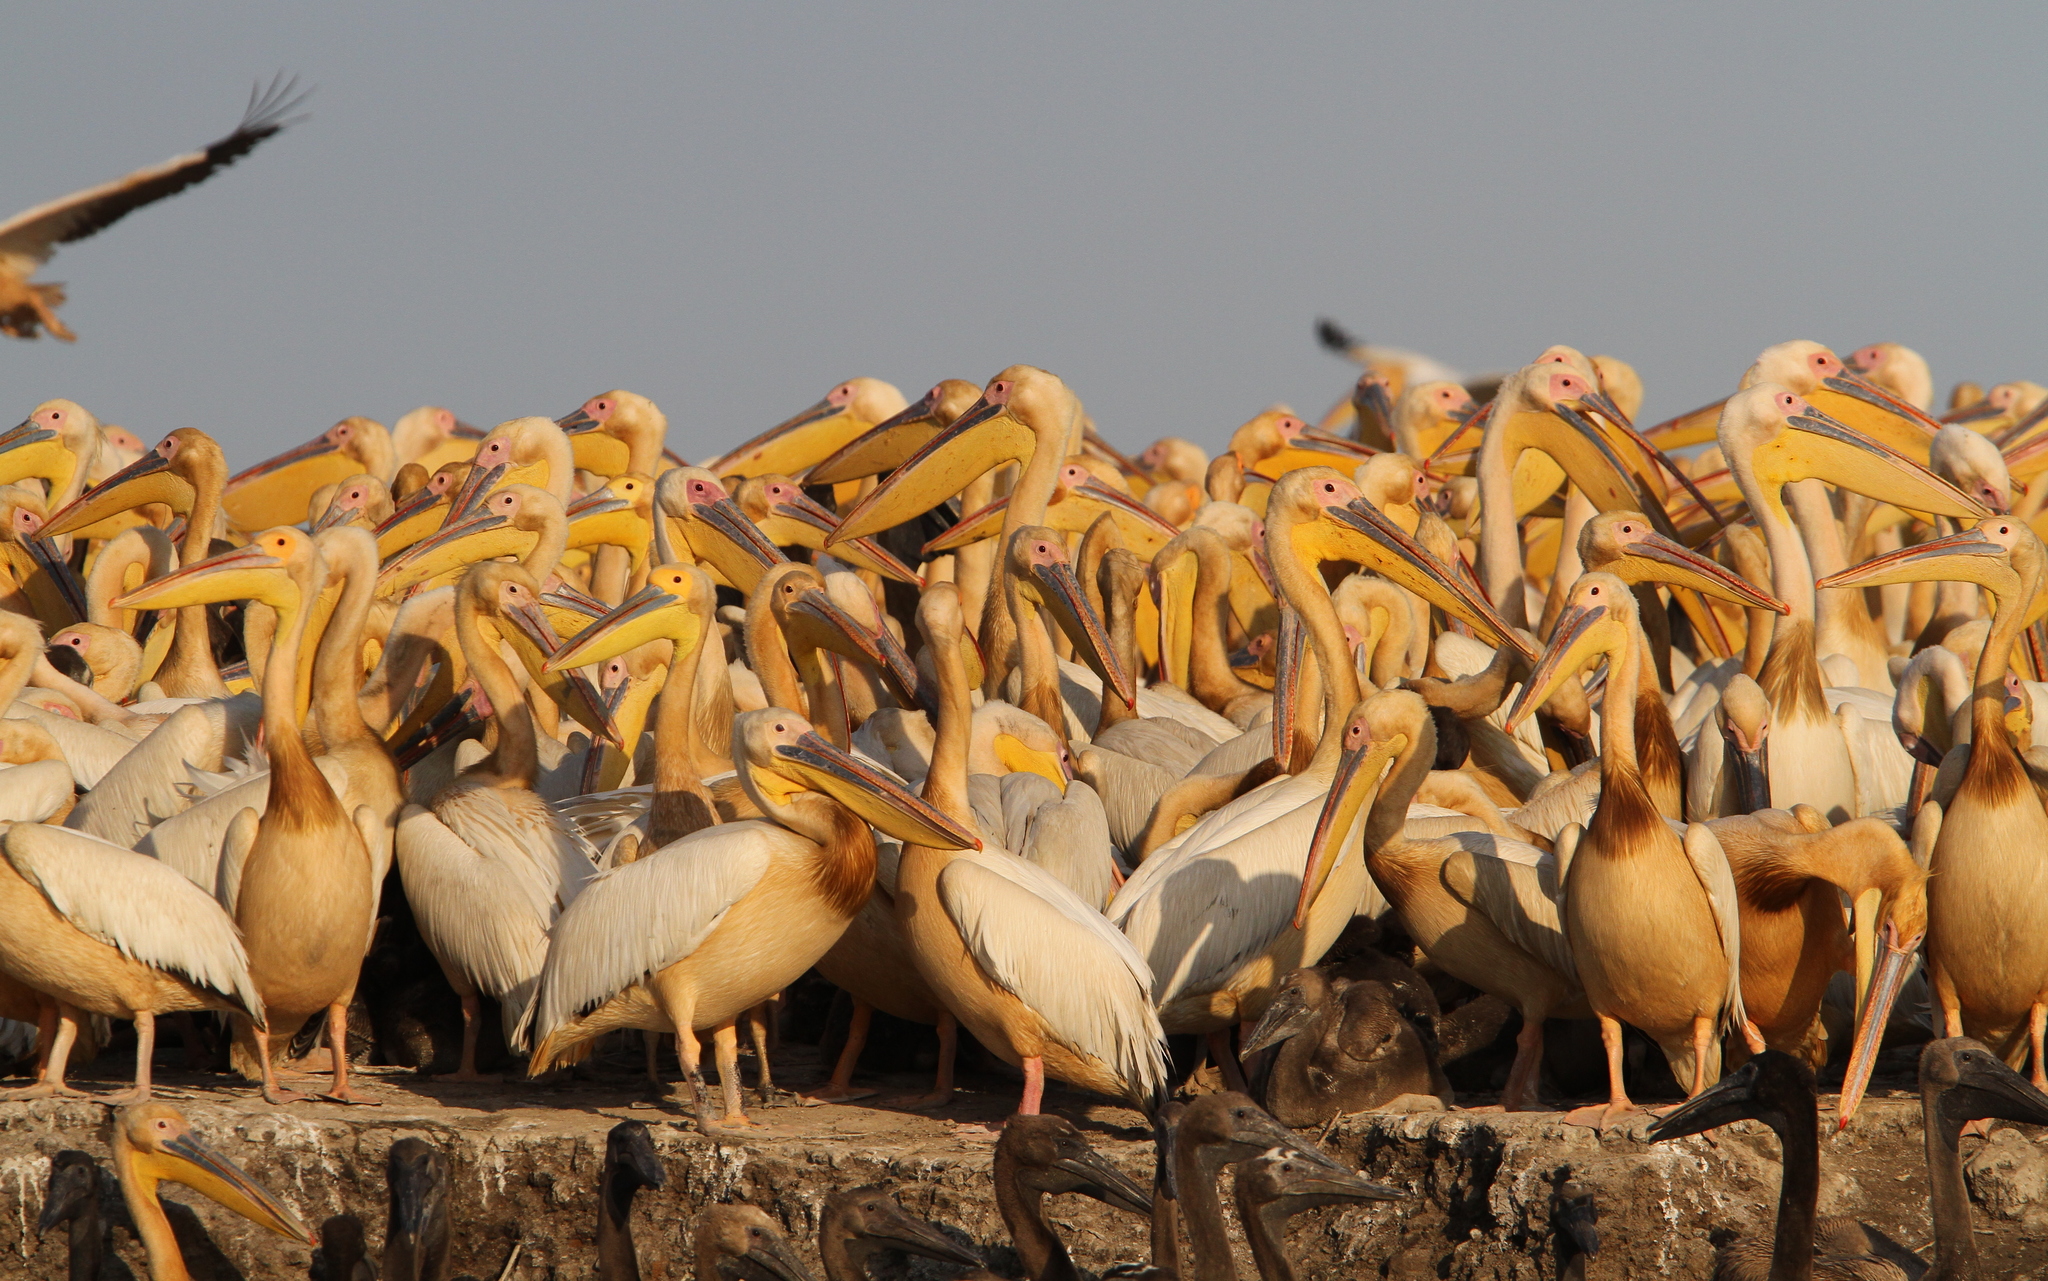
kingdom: Animalia
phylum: Chordata
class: Aves
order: Pelecaniformes
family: Pelecanidae
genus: Pelecanus
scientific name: Pelecanus onocrotalus
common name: Great white pelican
